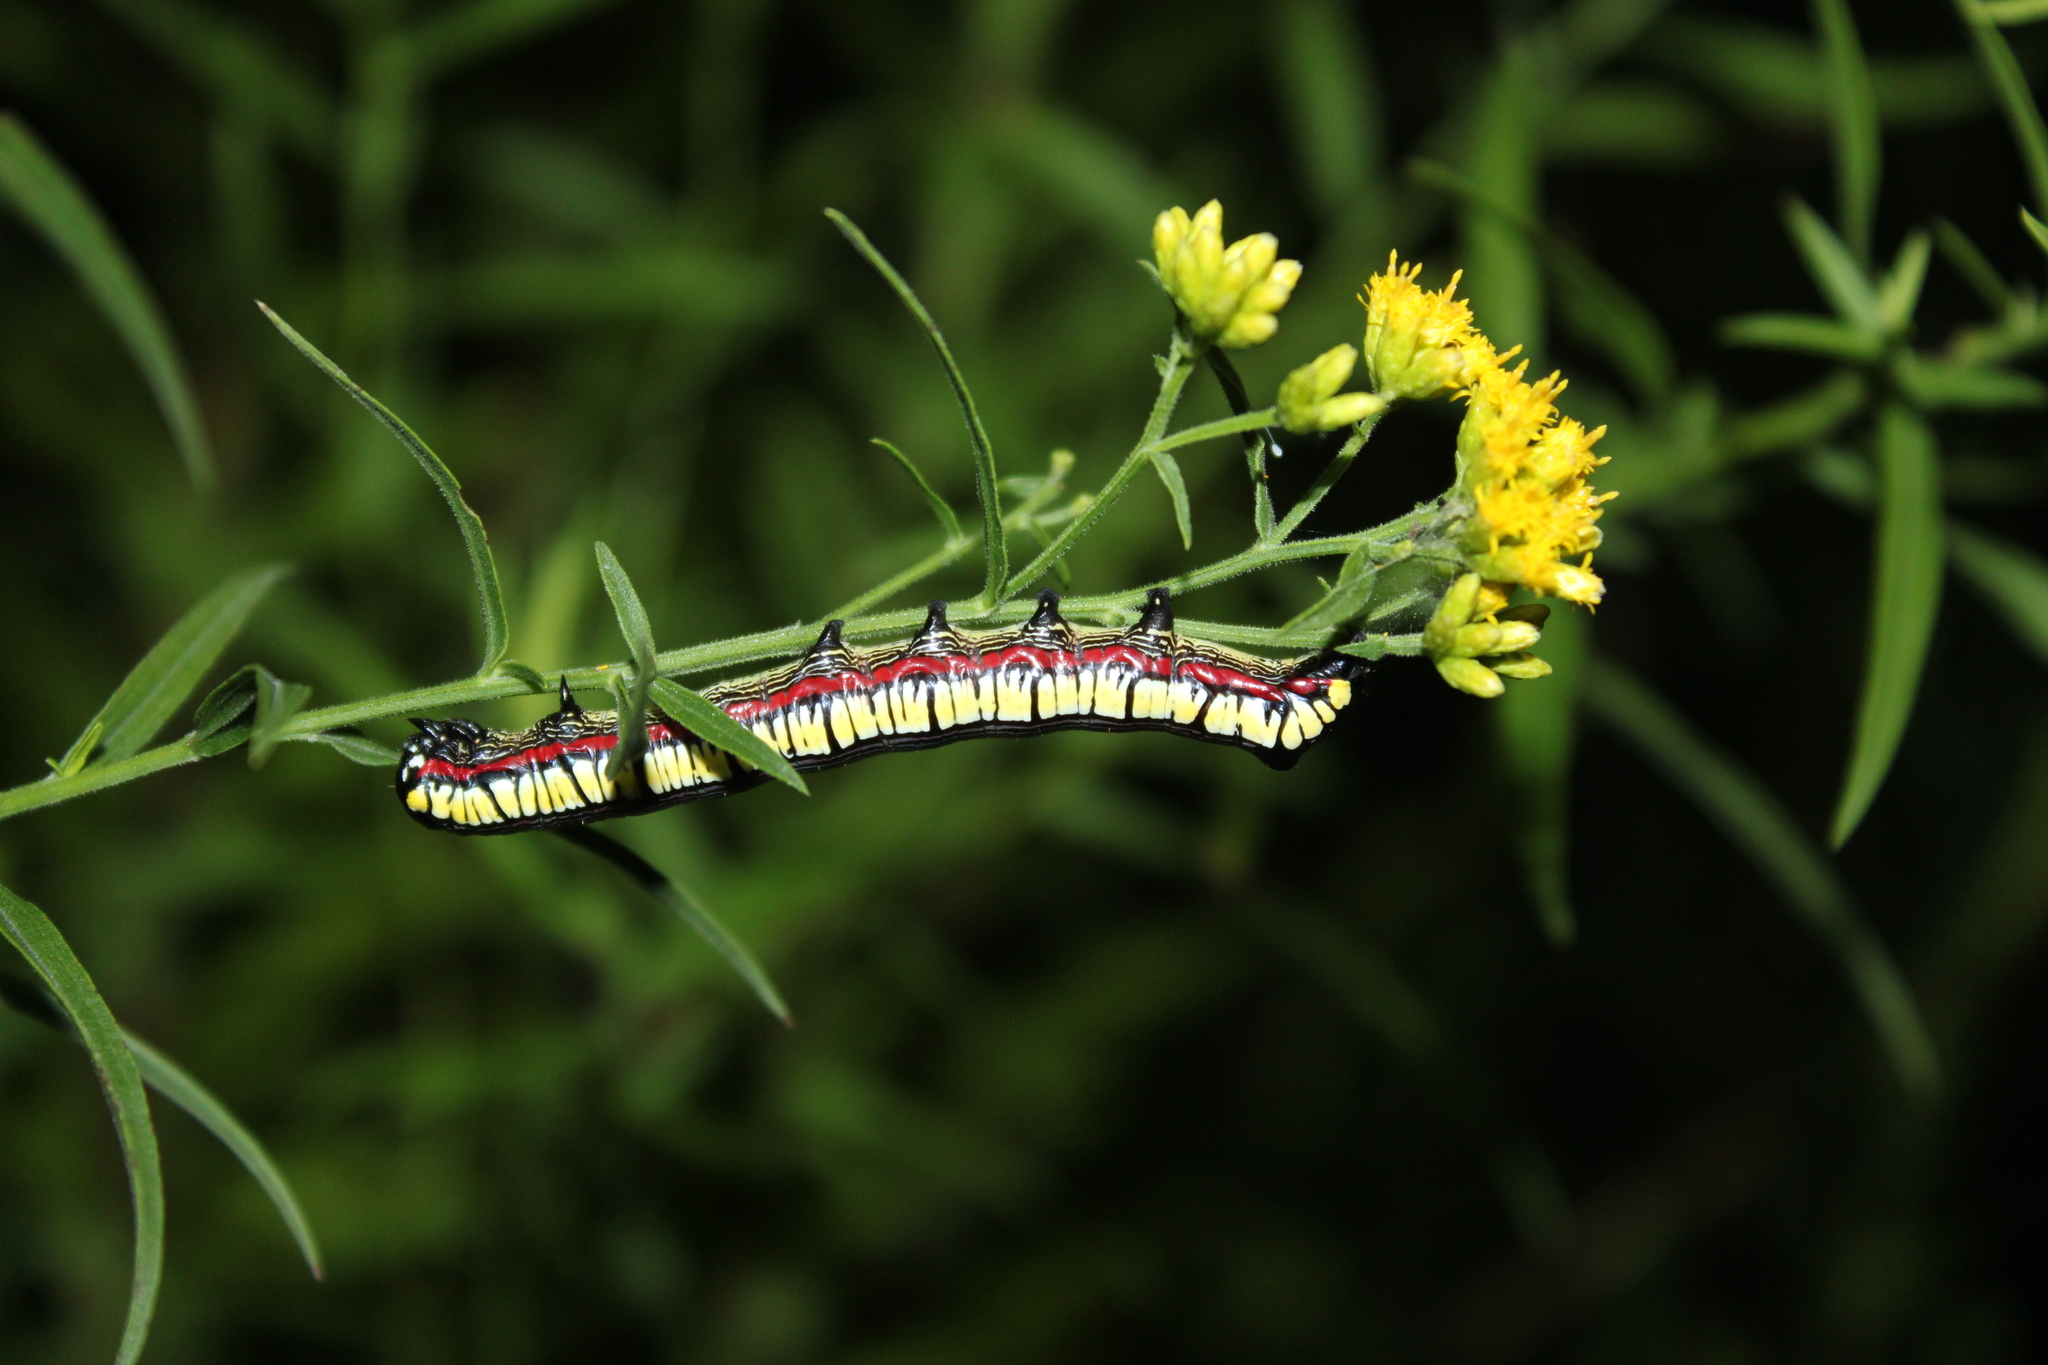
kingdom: Animalia
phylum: Arthropoda
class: Insecta
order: Lepidoptera
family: Noctuidae
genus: Cucullia
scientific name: Cucullia convexipennis
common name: Brown-hooded owlet
